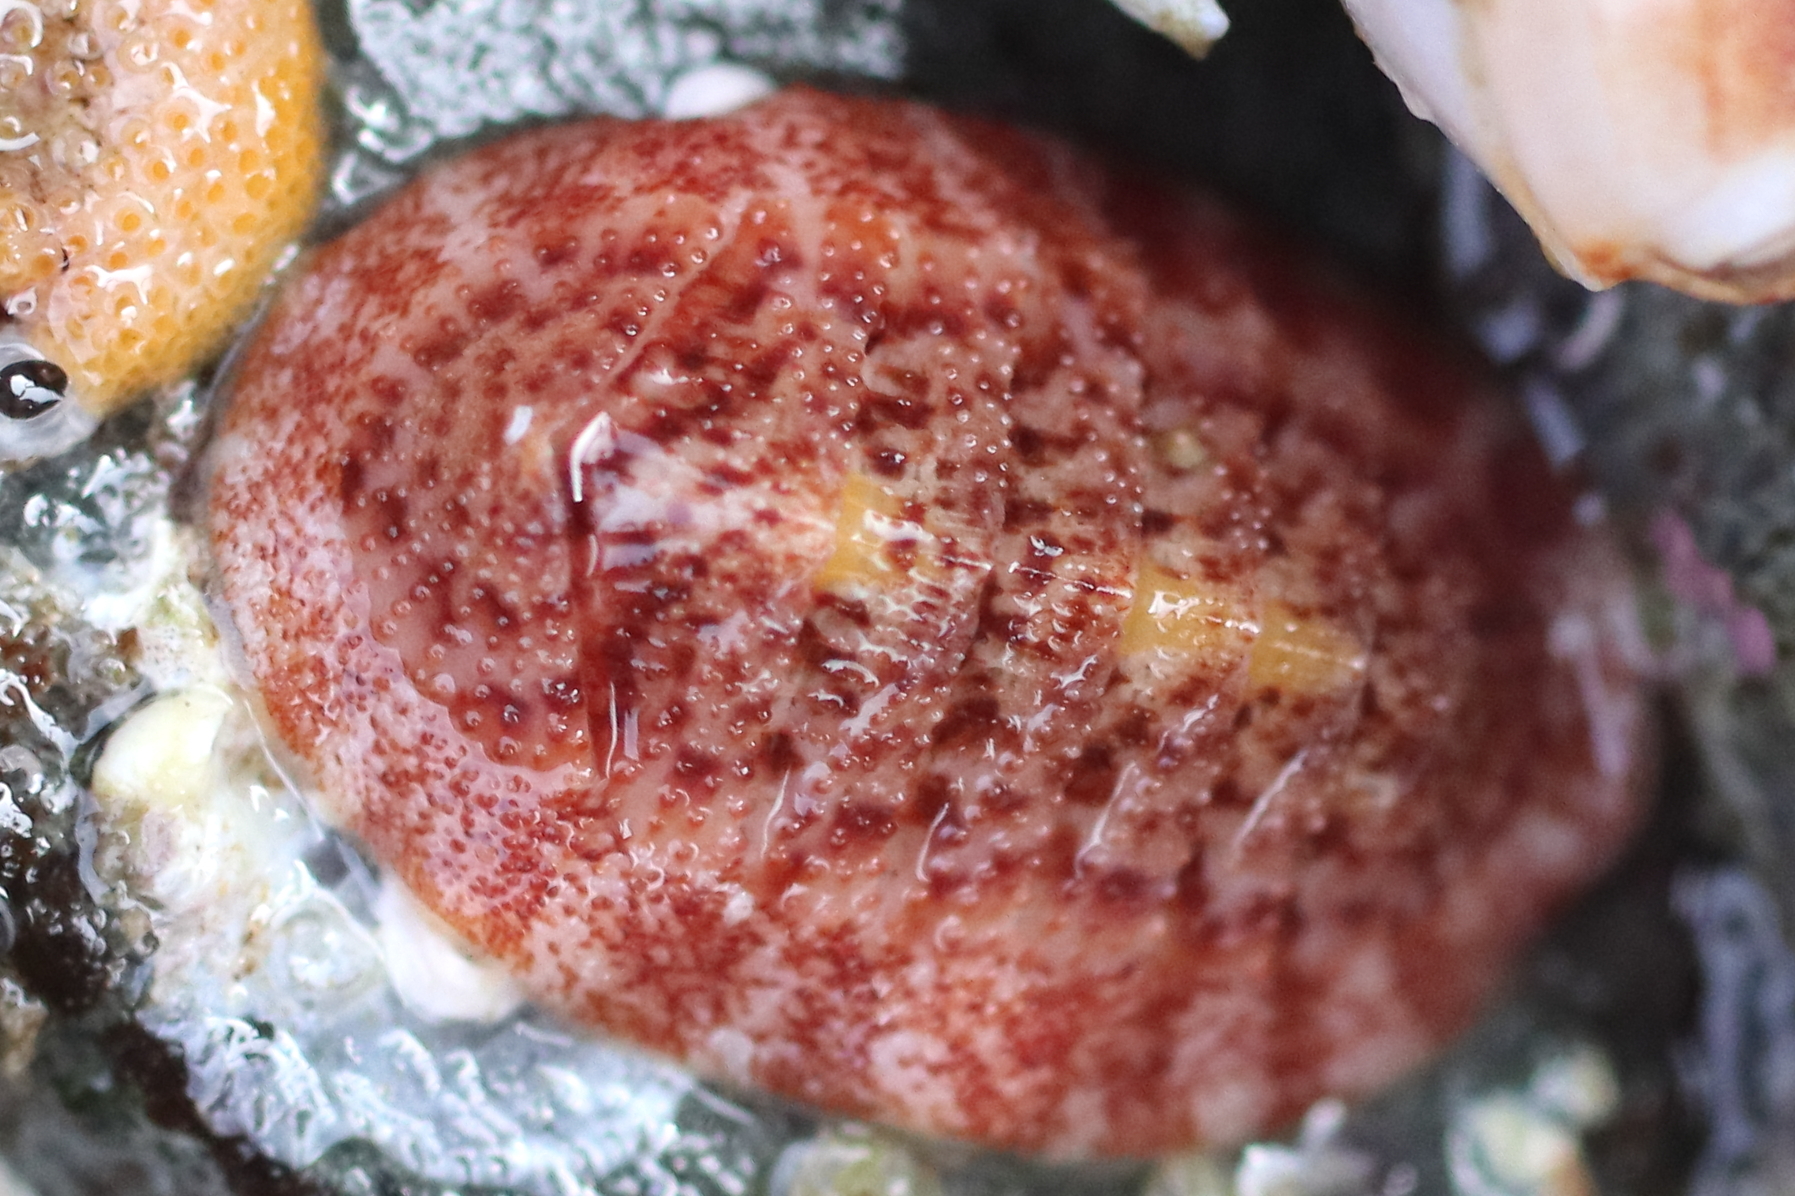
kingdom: Animalia
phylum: Mollusca
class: Polyplacophora
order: Chitonida
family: Ischnochitonidae
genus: Lepidozona
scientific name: Lepidozona mertensii
